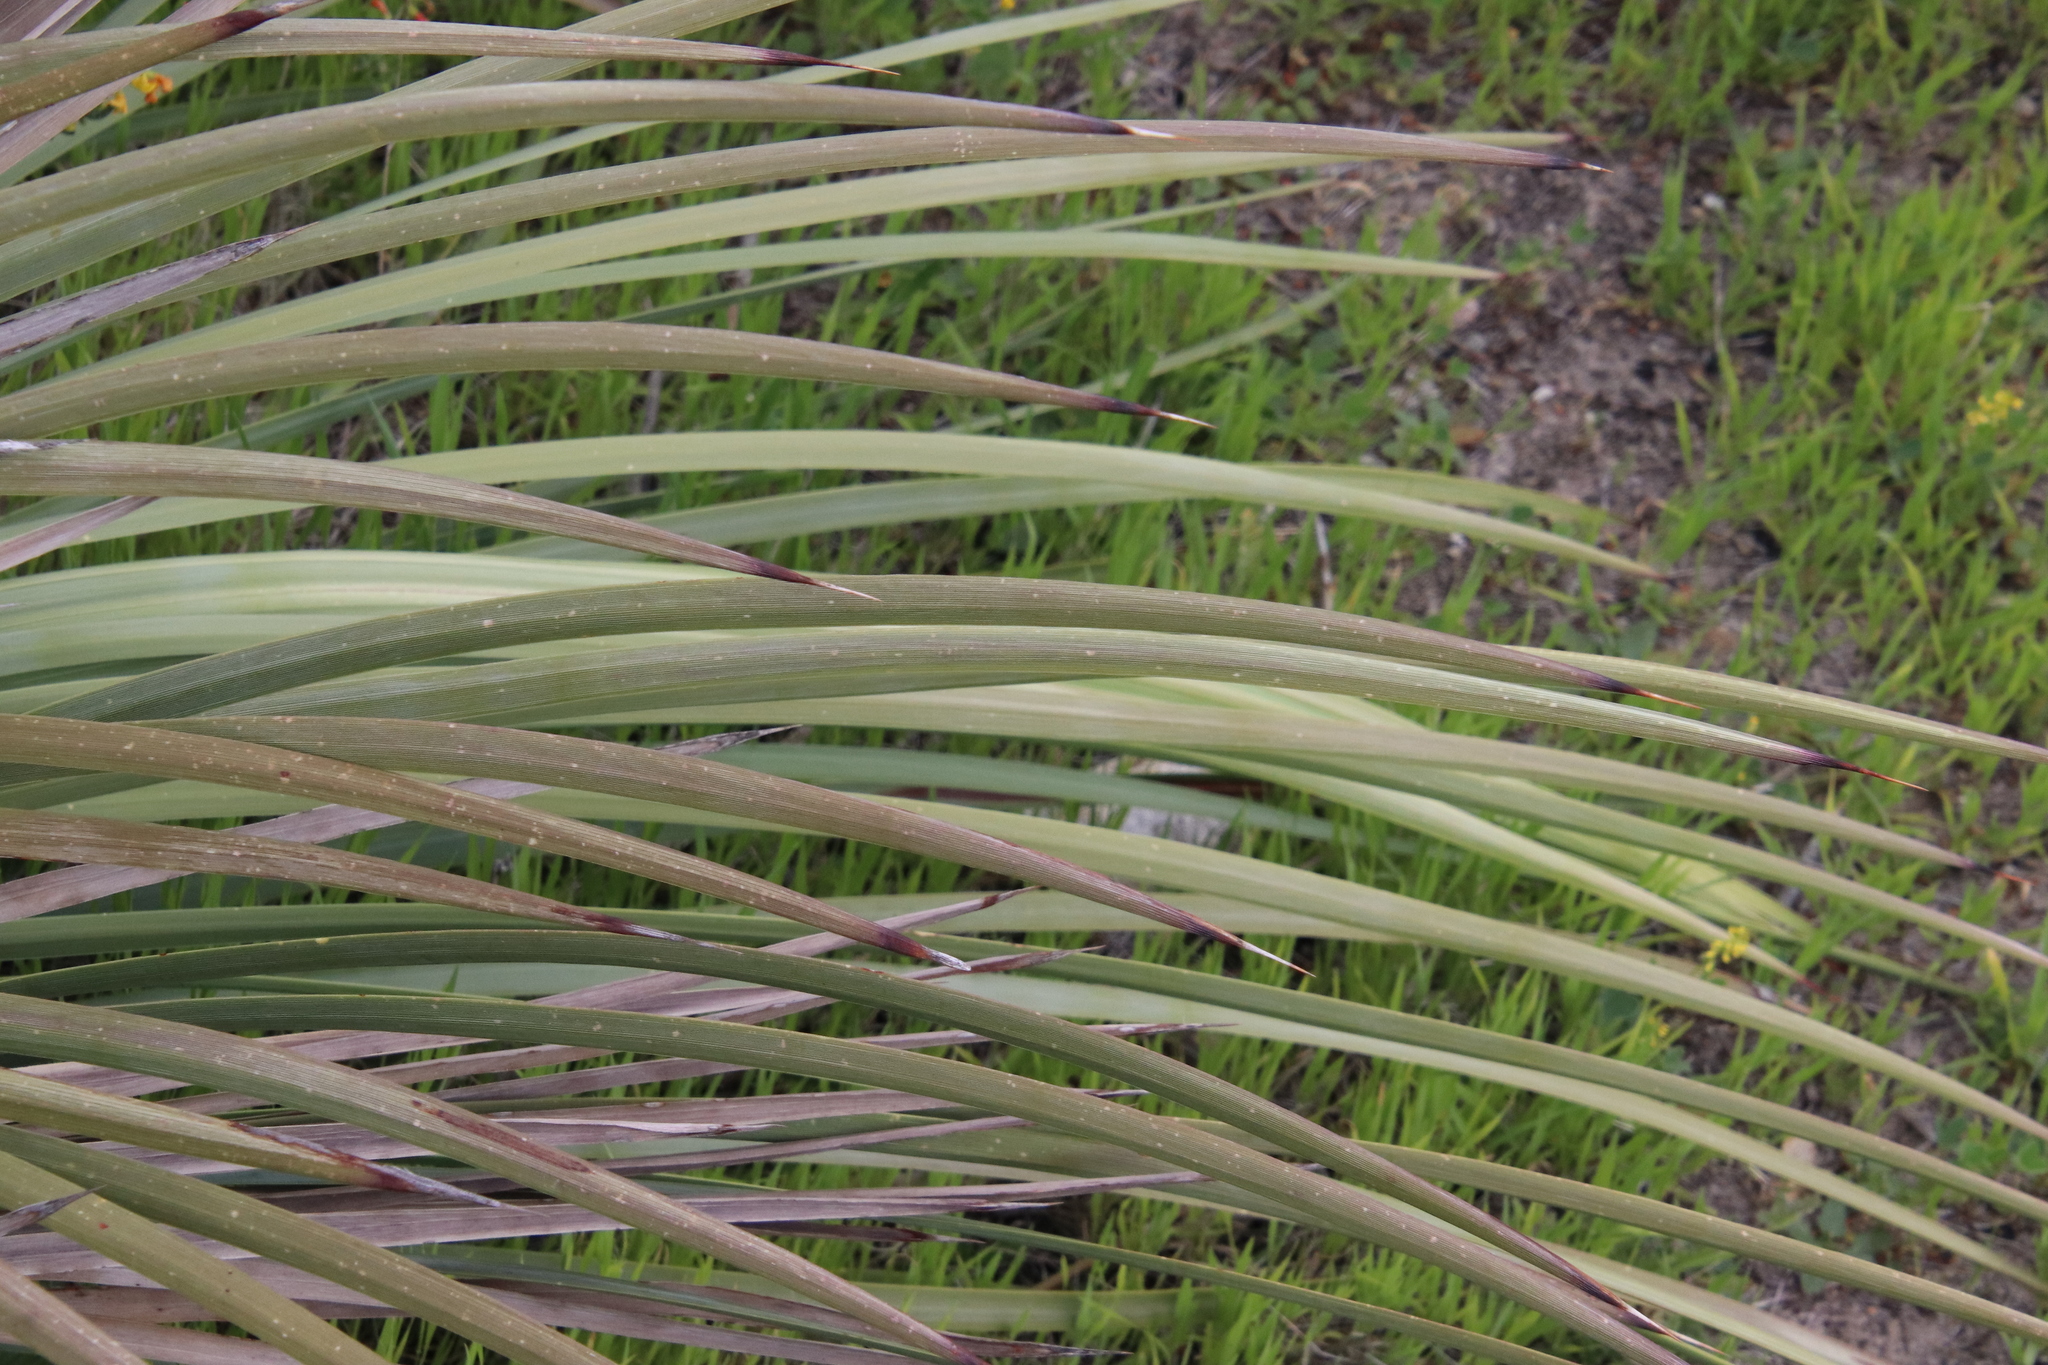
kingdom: Plantae
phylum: Tracheophyta
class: Liliopsida
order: Asparagales
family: Asparagaceae
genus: Hesperoyucca
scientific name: Hesperoyucca whipplei
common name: Our lord's-candle
